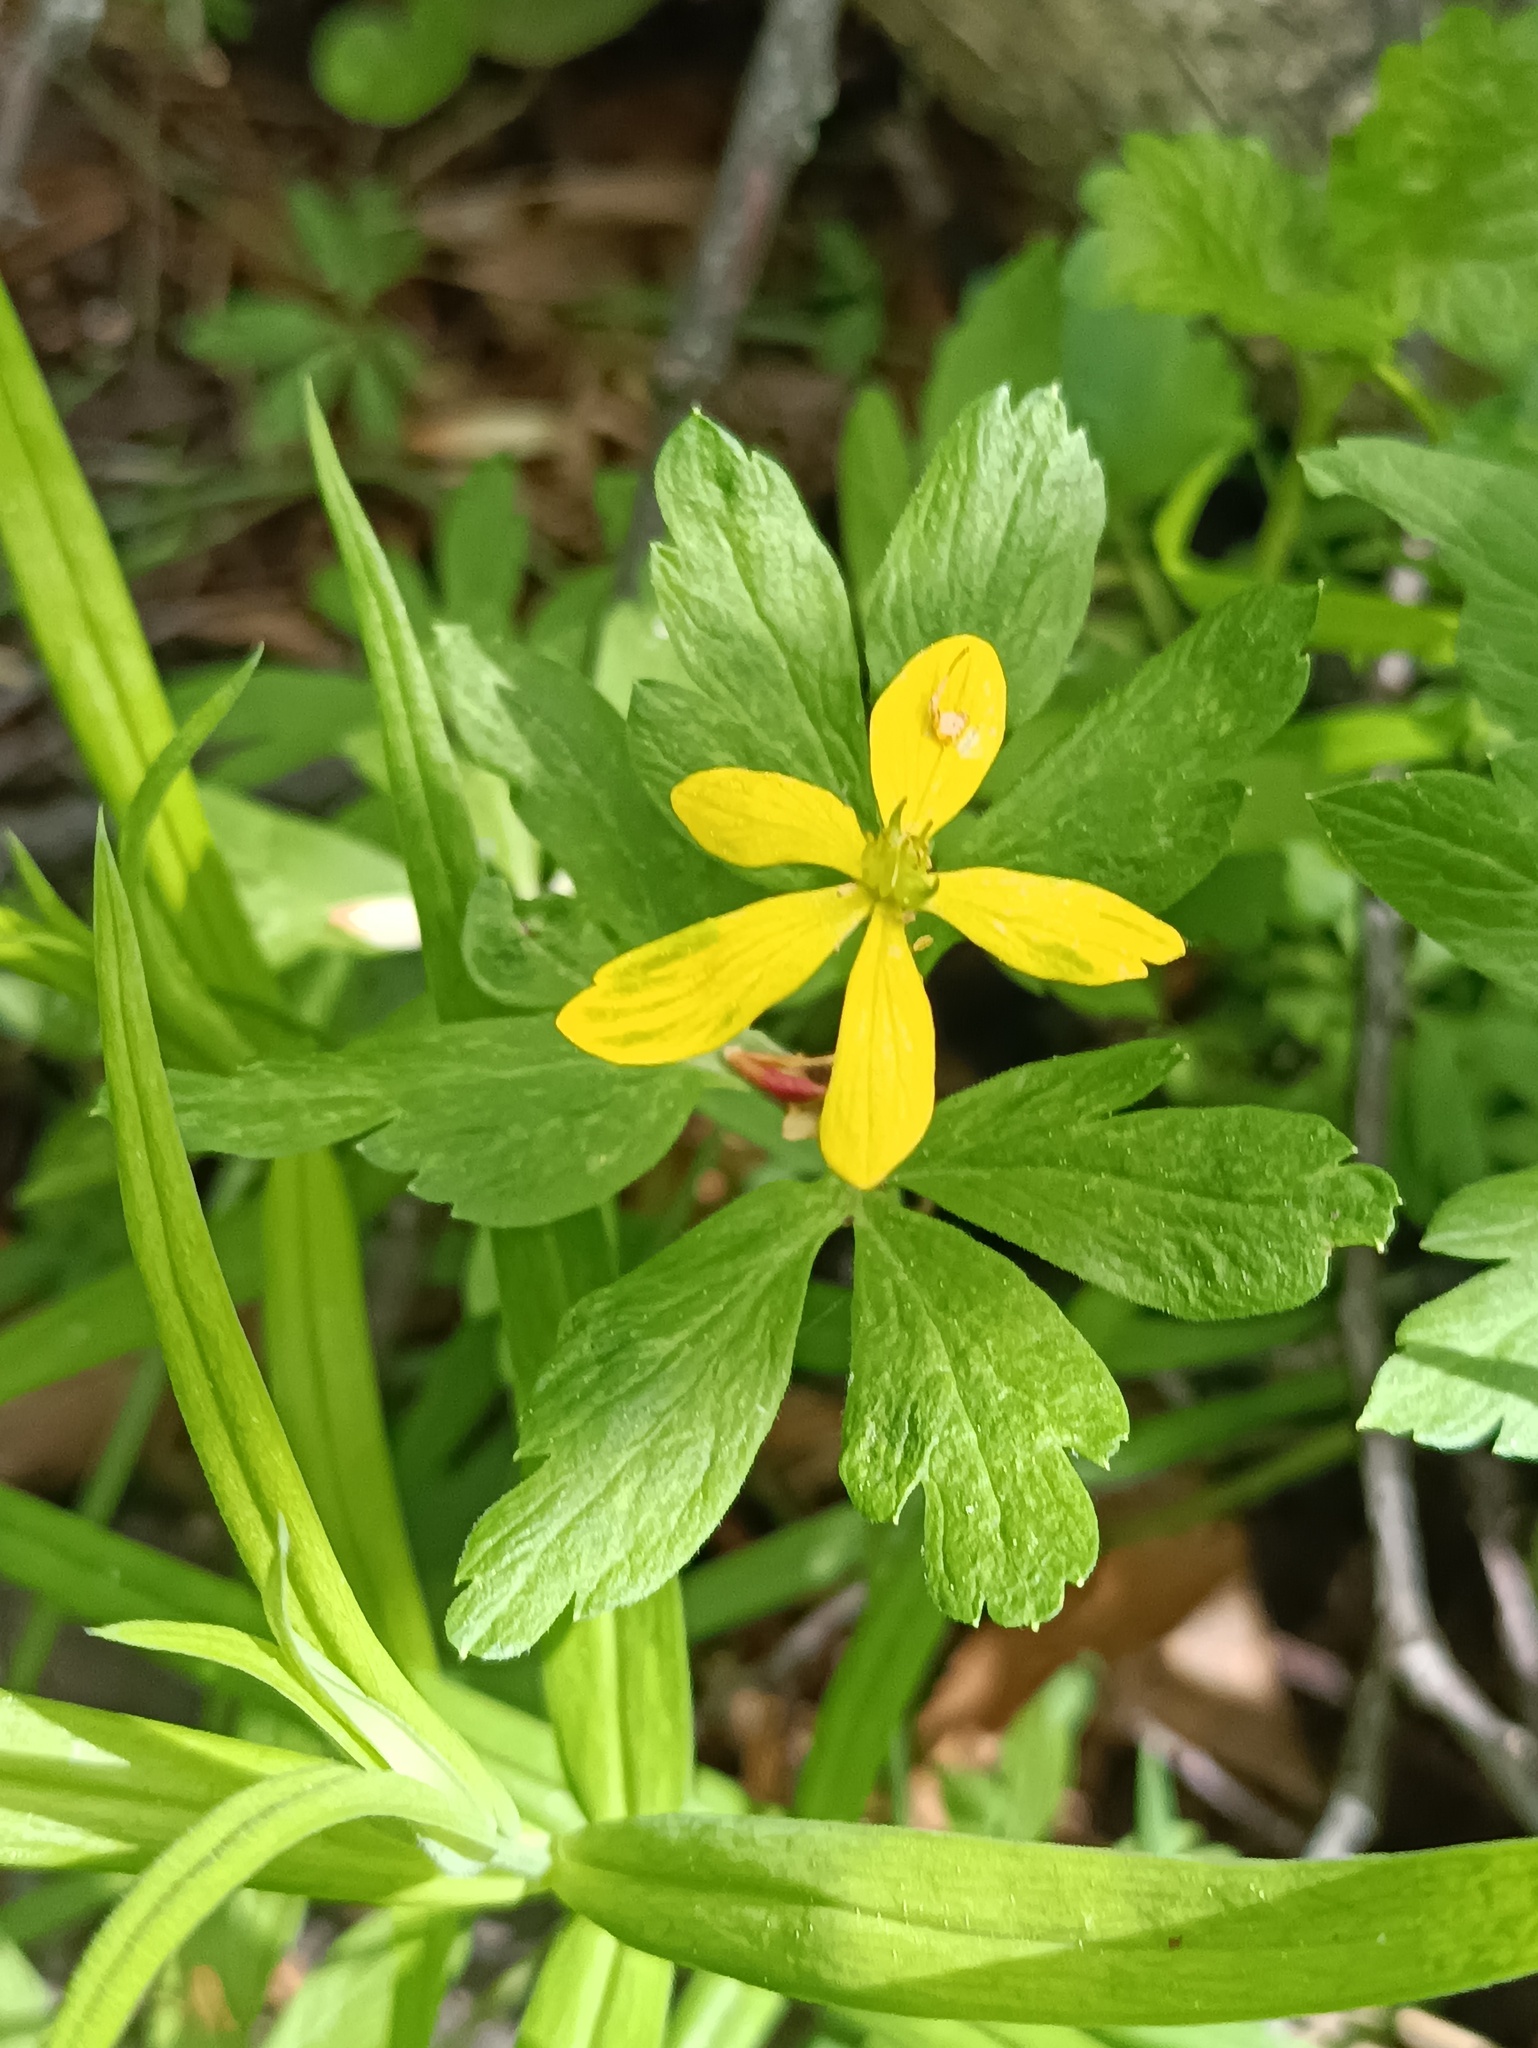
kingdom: Plantae
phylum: Tracheophyta
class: Magnoliopsida
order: Ranunculales
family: Ranunculaceae
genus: Anemone
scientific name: Anemone ranunculoides
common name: Yellow anemone
